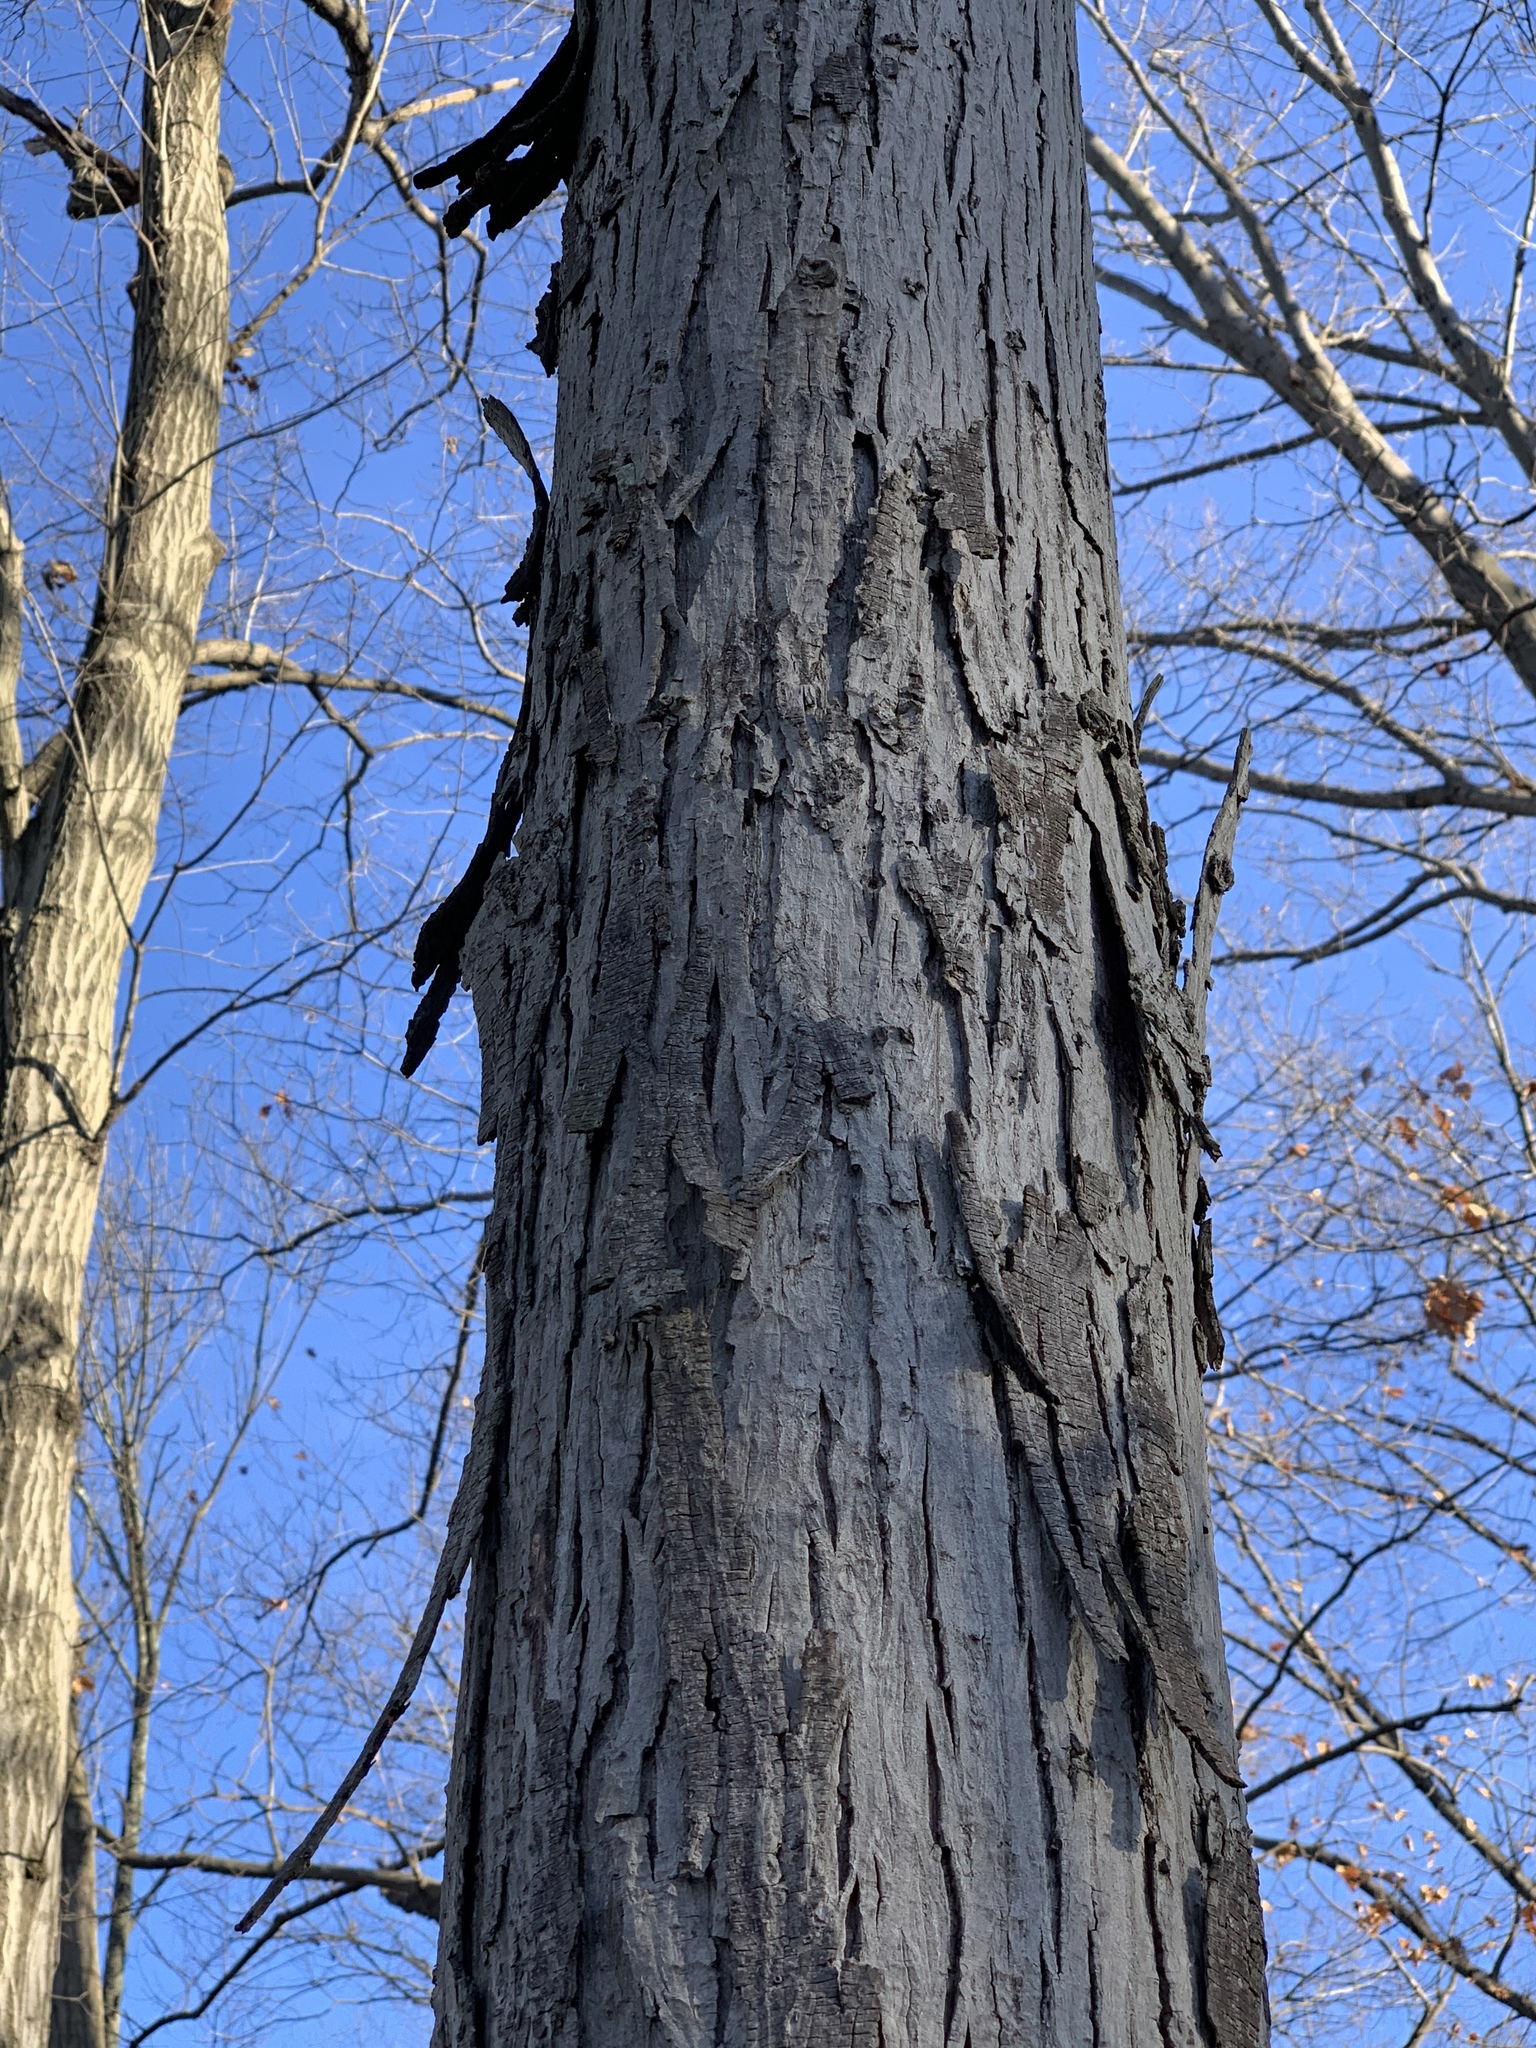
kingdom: Plantae
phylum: Tracheophyta
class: Magnoliopsida
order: Fagales
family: Juglandaceae
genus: Carya
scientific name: Carya ovata
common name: Shagbark hickory
